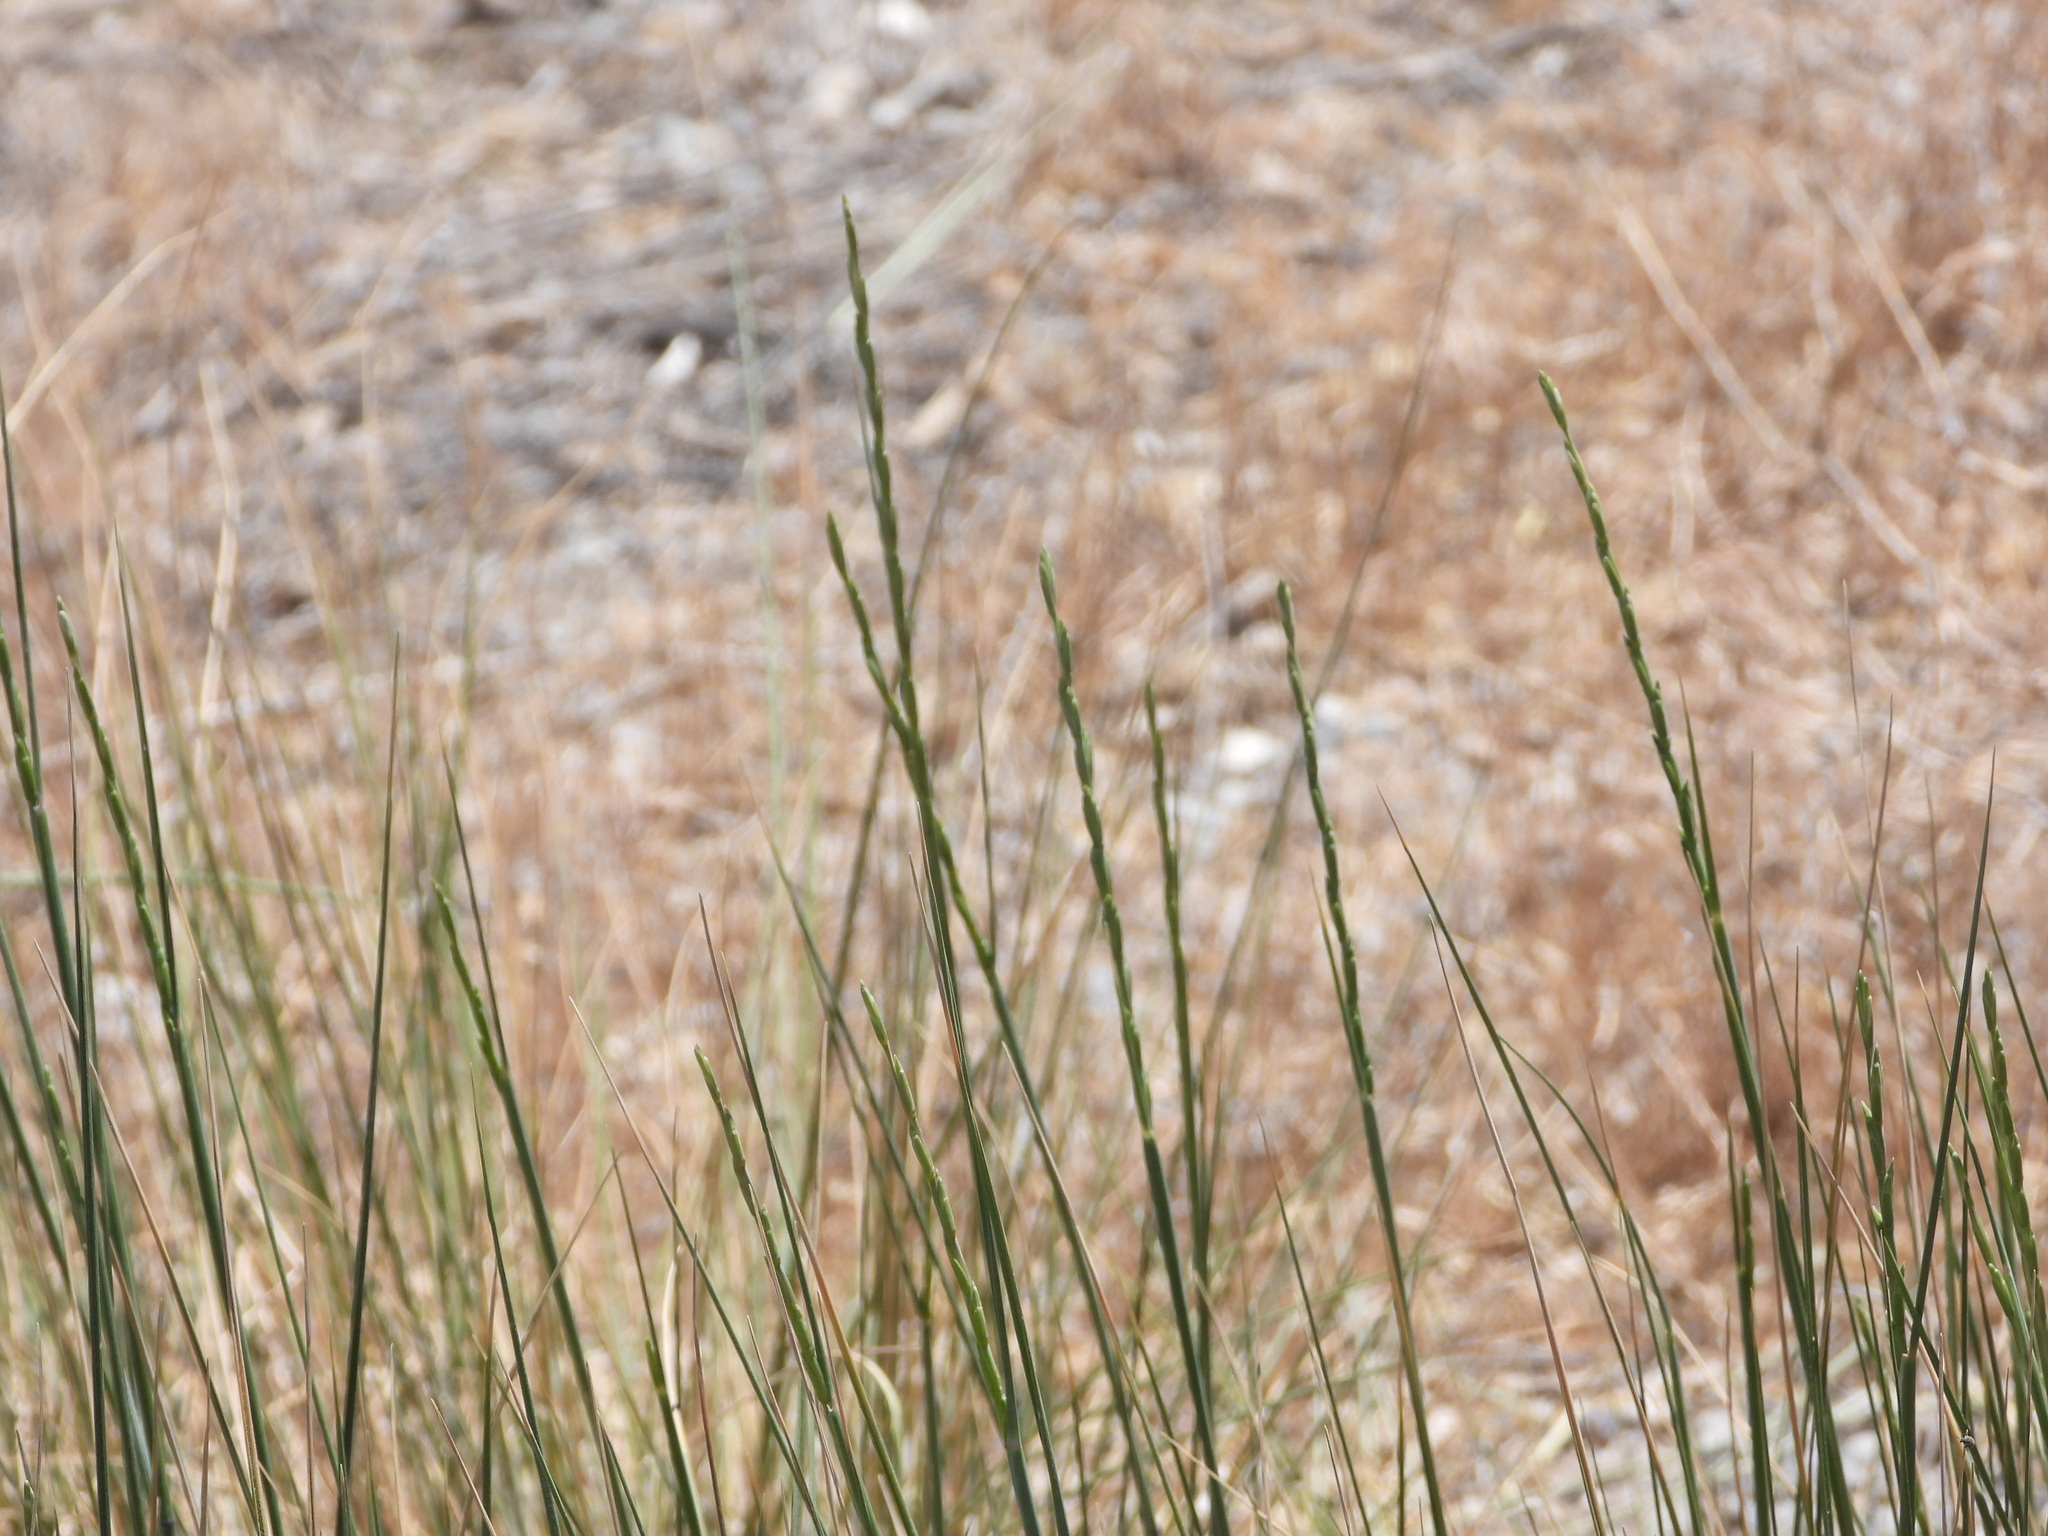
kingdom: Plantae
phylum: Tracheophyta
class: Liliopsida
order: Poales
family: Poaceae
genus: Thinopyrum
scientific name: Thinopyrum obtusiflorum
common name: Eurasian quackgrass
